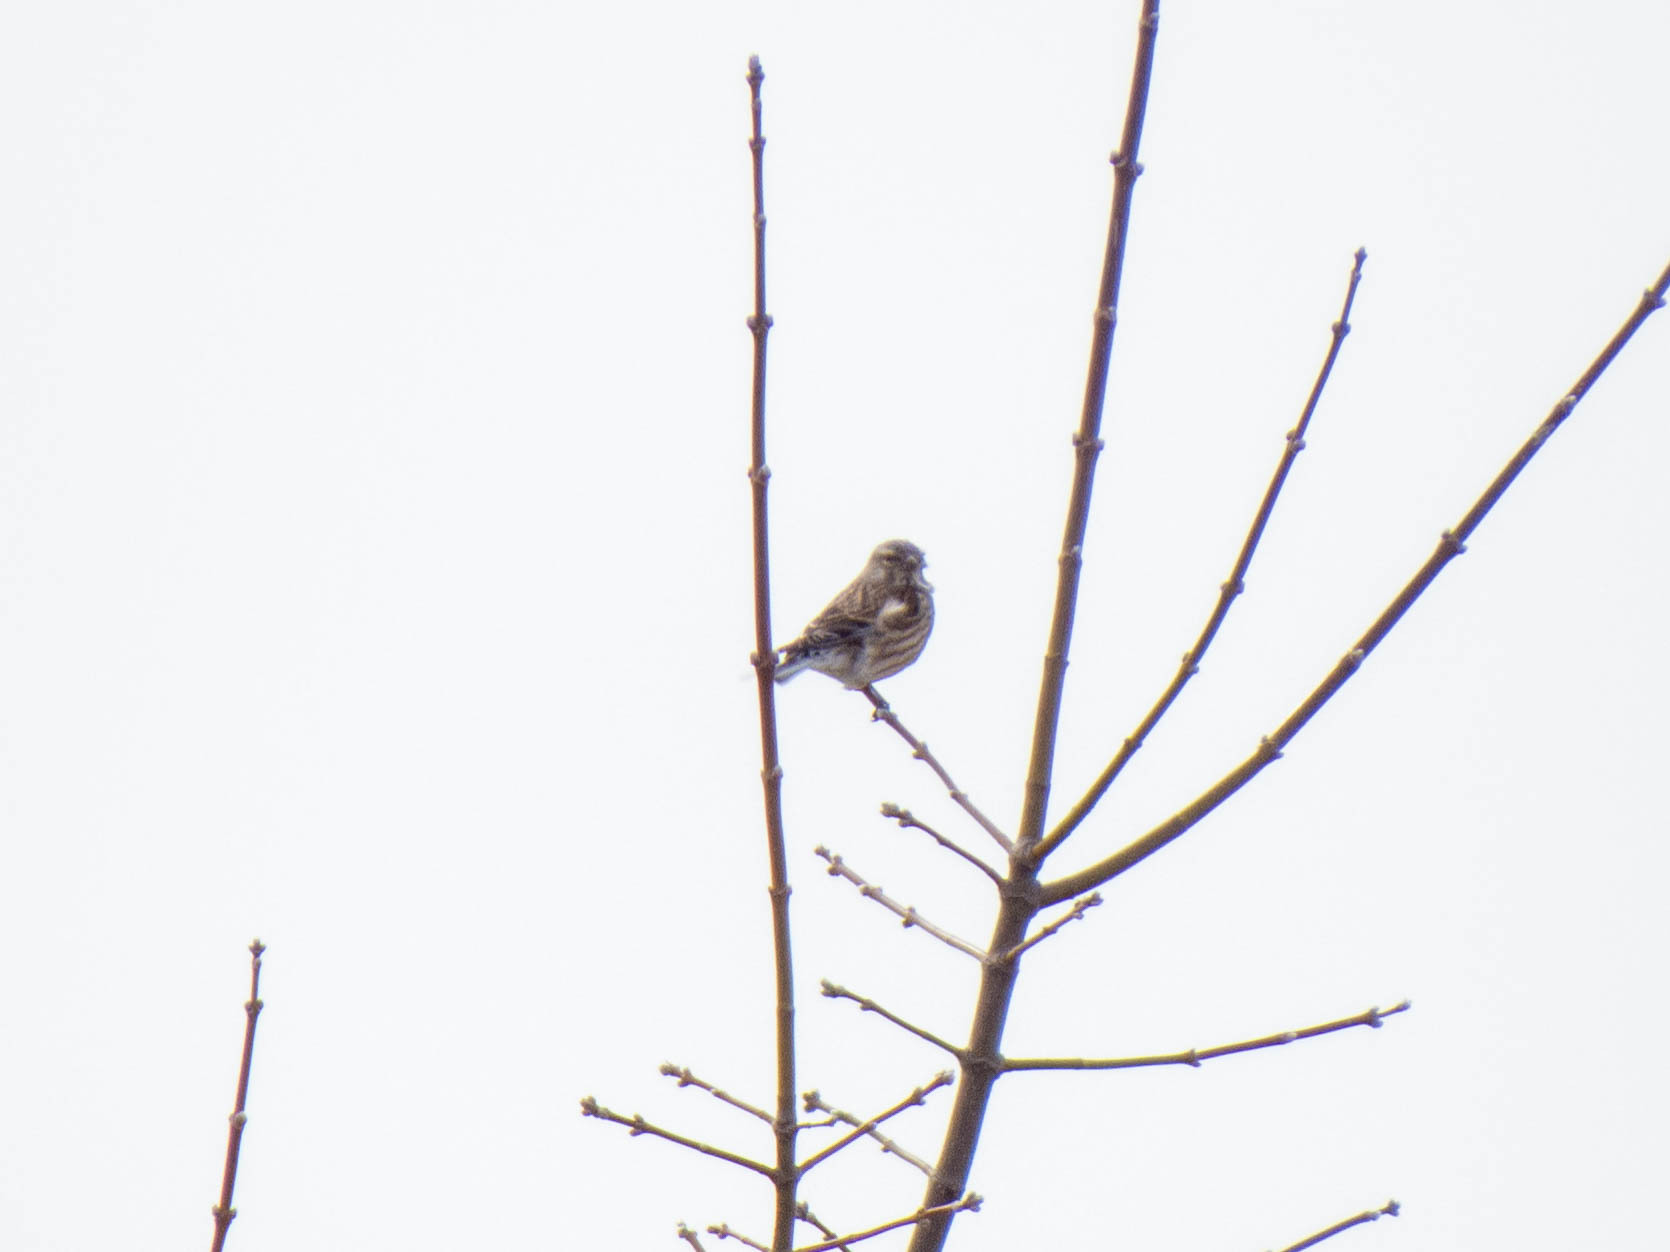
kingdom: Animalia
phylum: Chordata
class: Aves
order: Passeriformes
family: Fringillidae
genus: Linaria
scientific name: Linaria cannabina
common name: Common linnet
